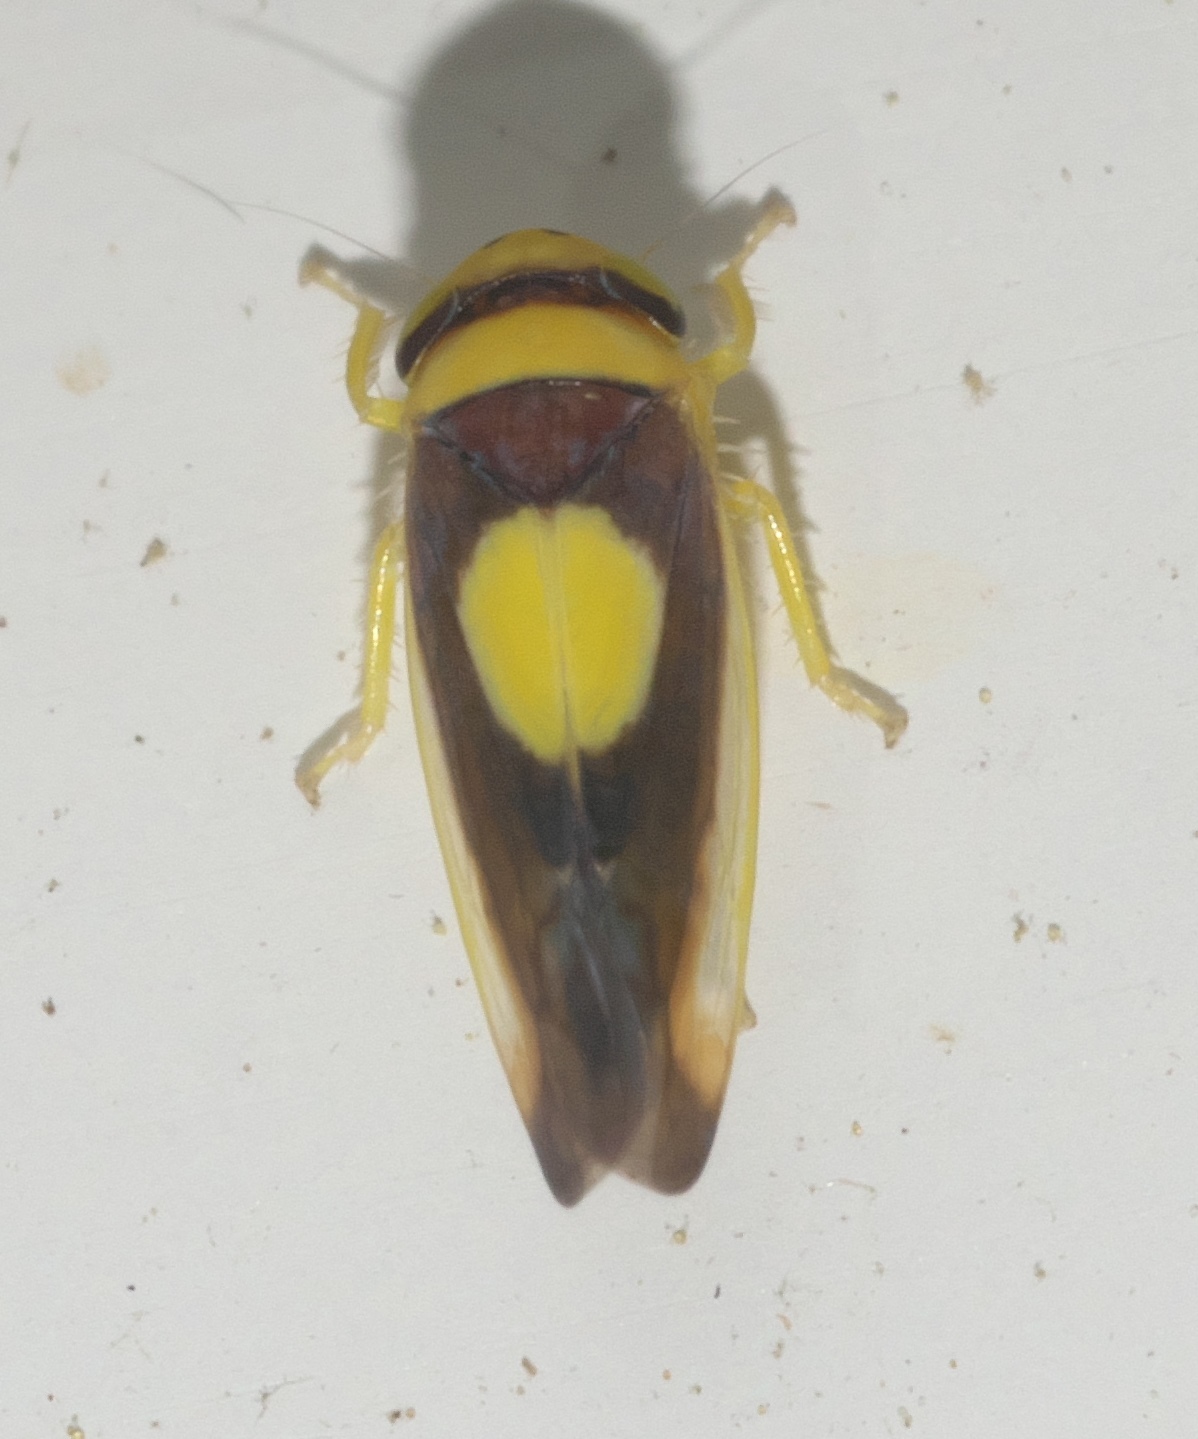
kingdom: Animalia
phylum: Arthropoda
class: Insecta
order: Hemiptera
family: Cicadellidae
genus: Colladonus
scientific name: Colladonus clitellarius
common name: The saddleback leafhopper
